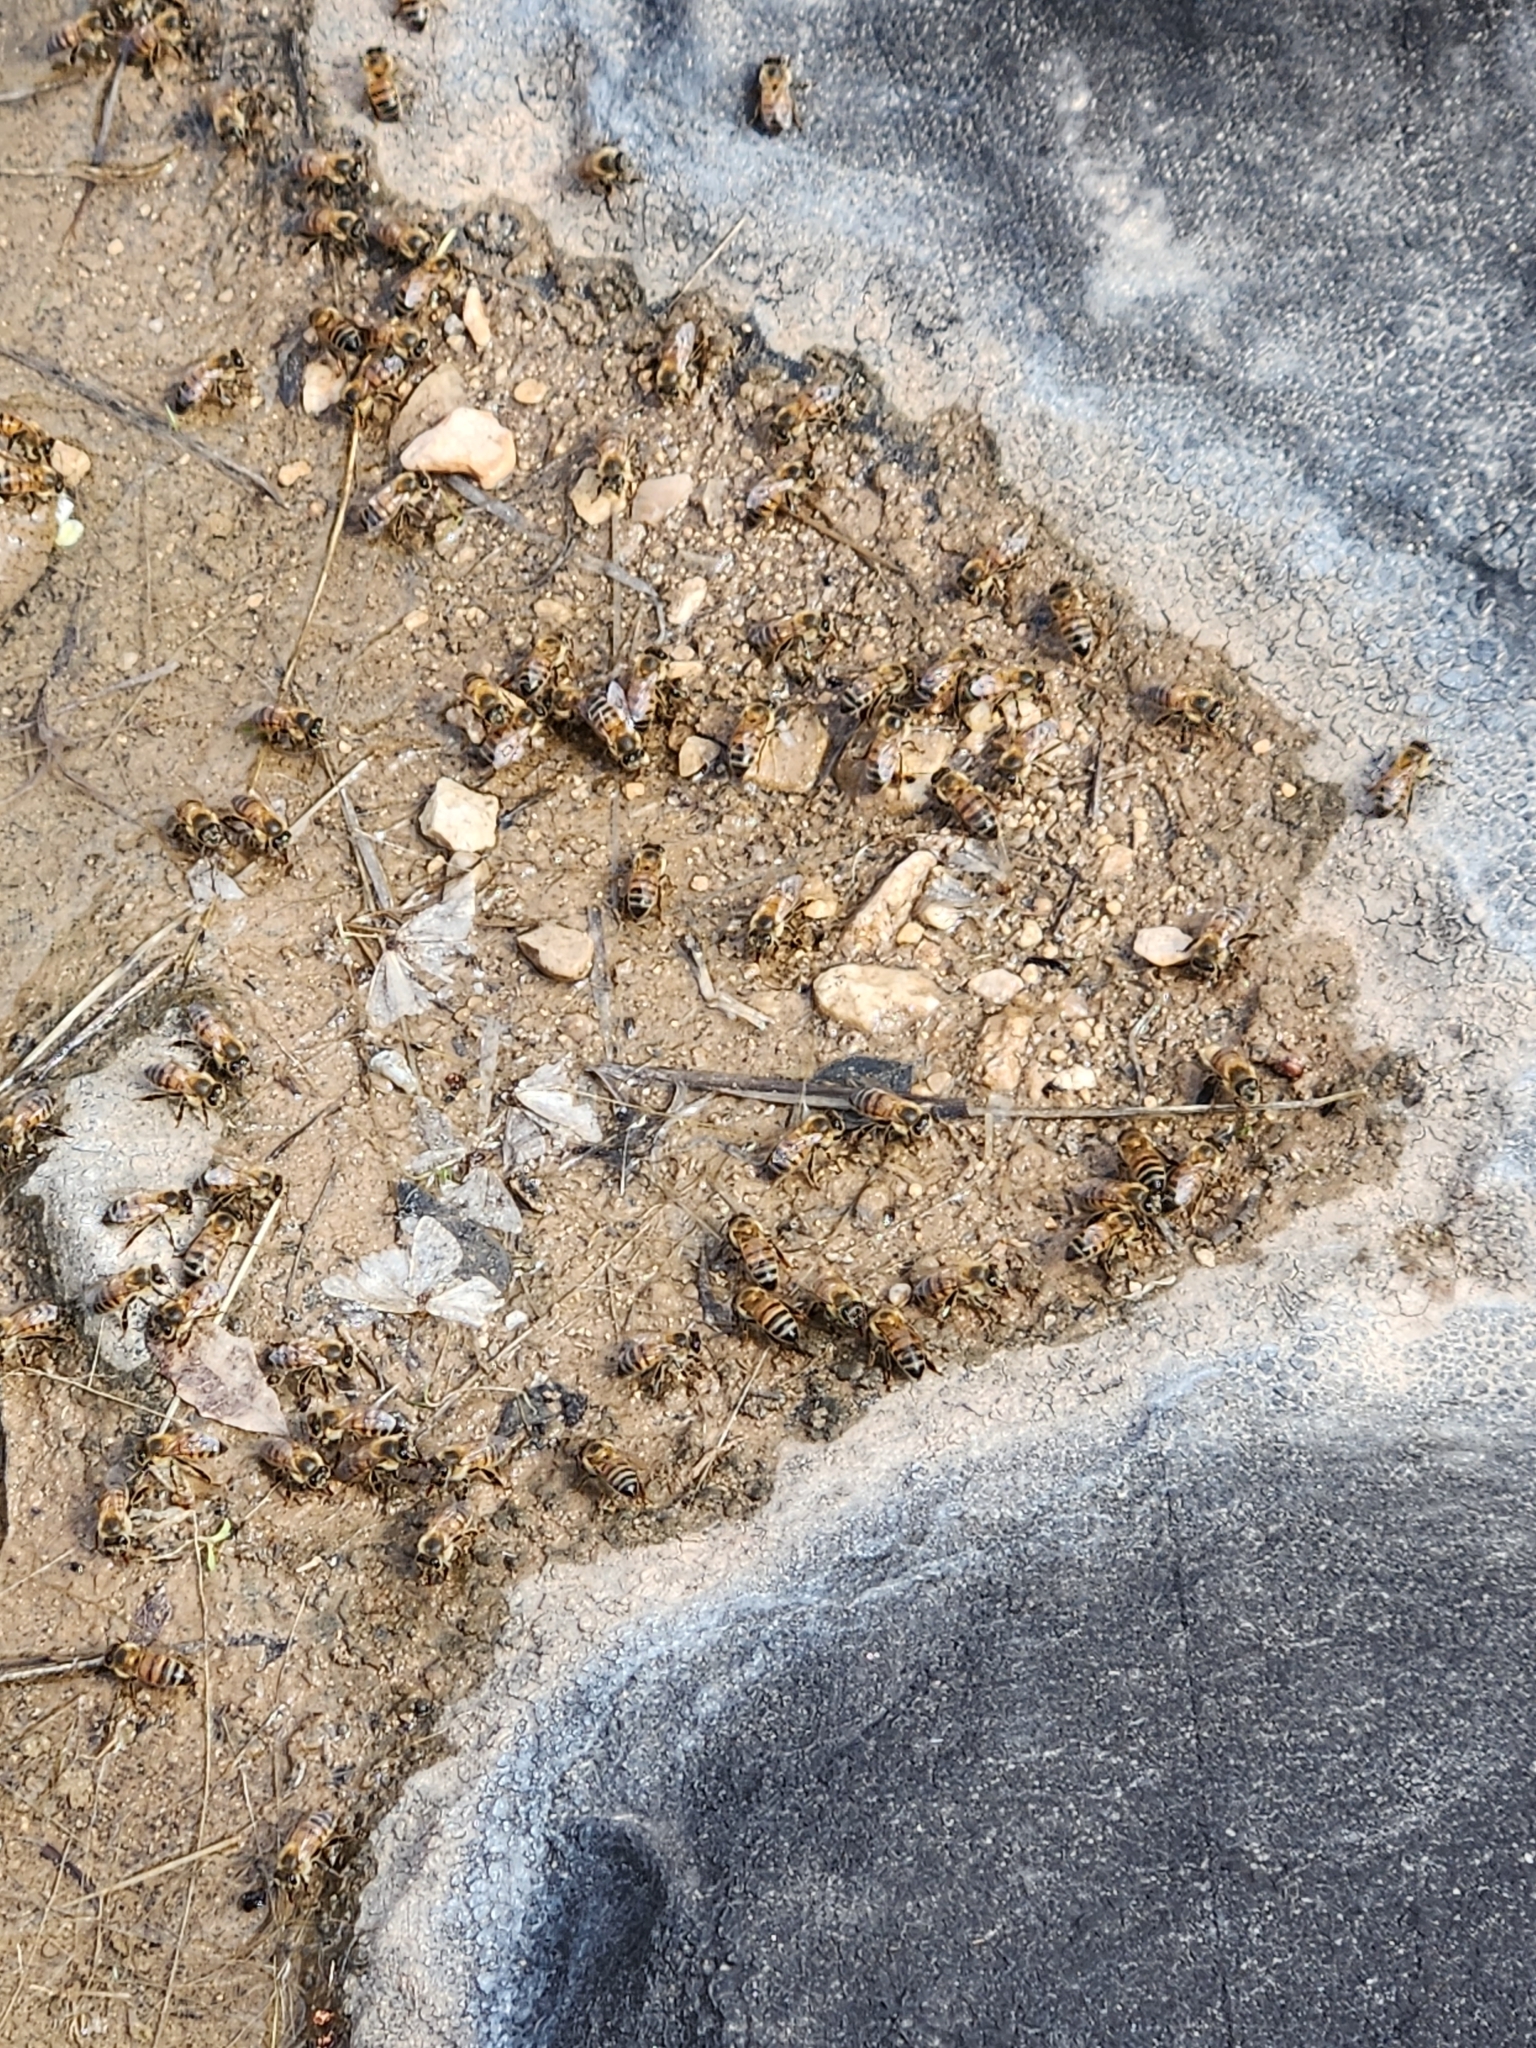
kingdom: Animalia
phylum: Arthropoda
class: Insecta
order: Hymenoptera
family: Apidae
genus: Apis
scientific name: Apis mellifera
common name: Honey bee
